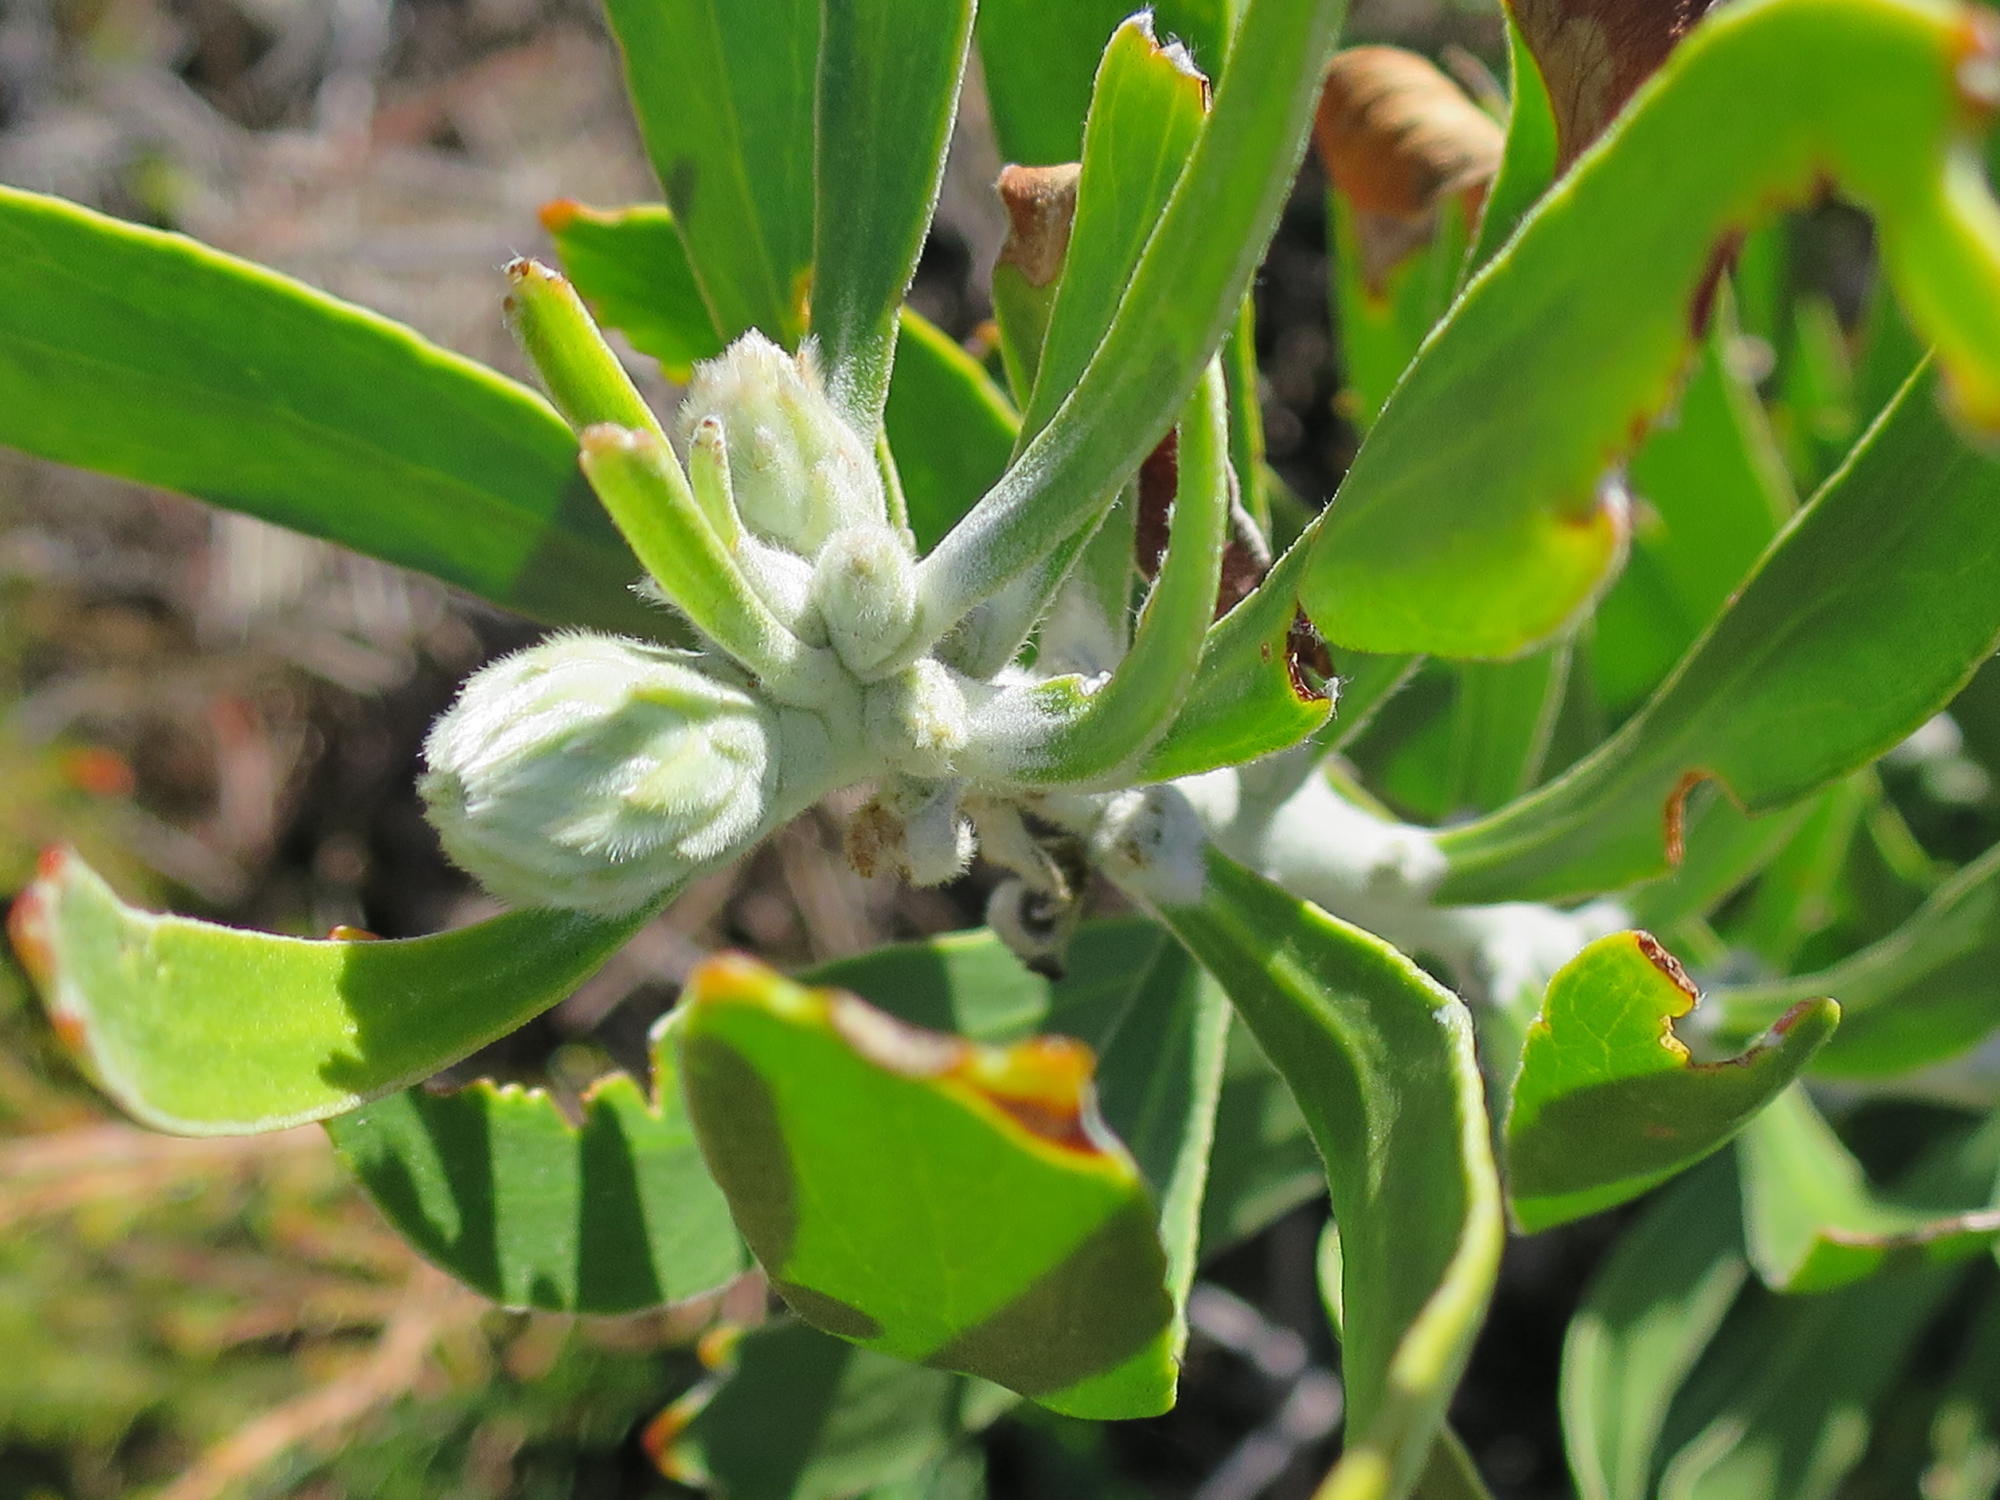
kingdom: Plantae
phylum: Tracheophyta
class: Magnoliopsida
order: Proteales
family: Proteaceae
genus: Leucospermum
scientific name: Leucospermum cuneiforme
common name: Common pincushion
